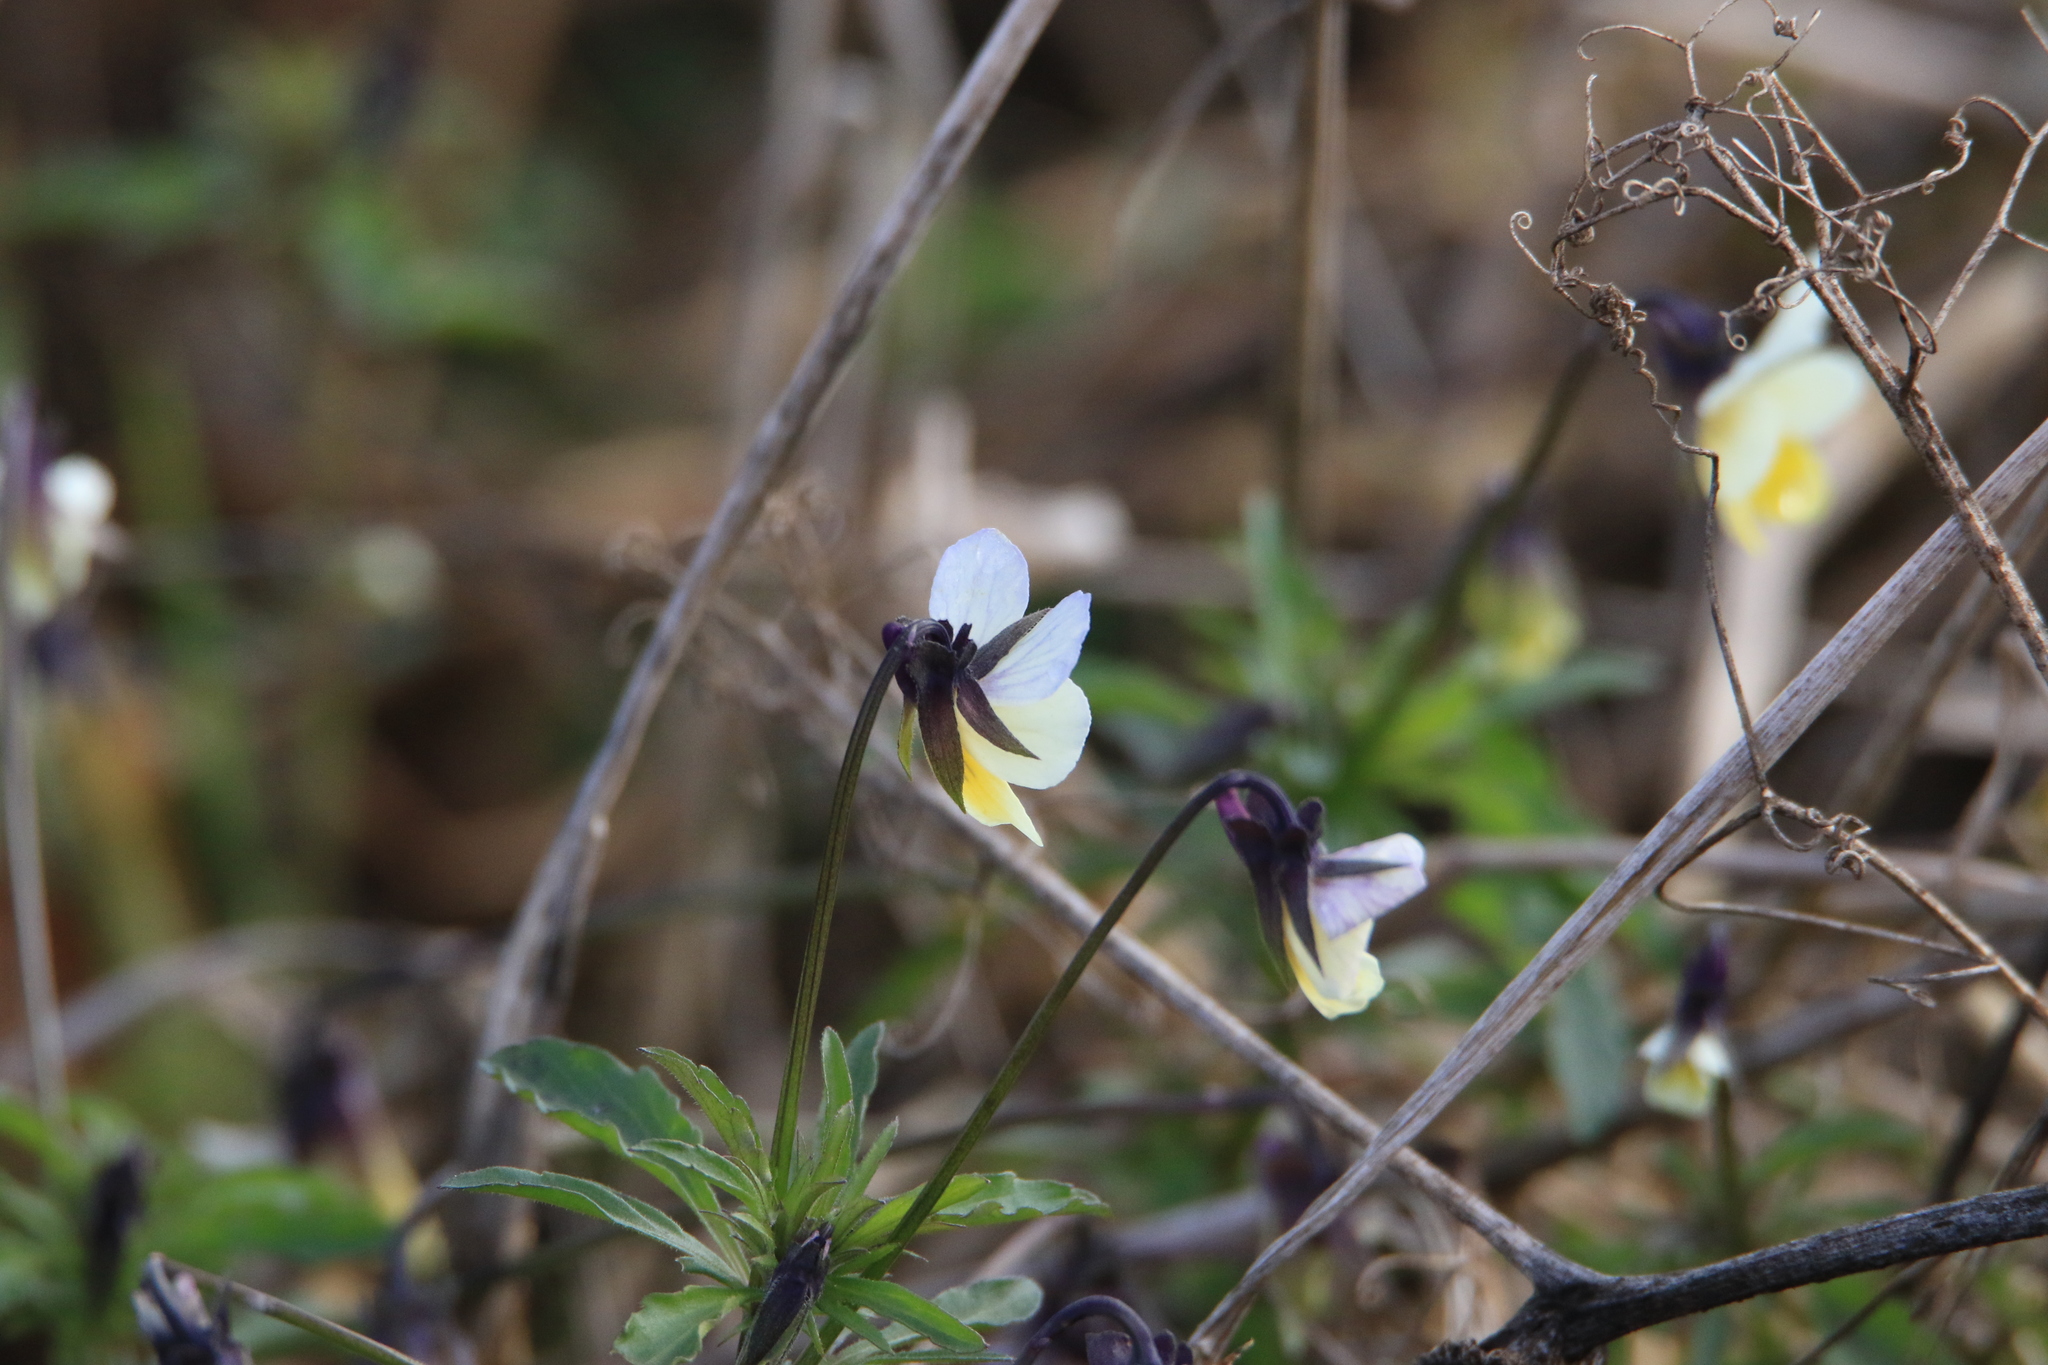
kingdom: Plantae
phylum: Tracheophyta
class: Magnoliopsida
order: Malpighiales
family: Violaceae
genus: Viola
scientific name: Viola arvensis
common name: Field pansy
